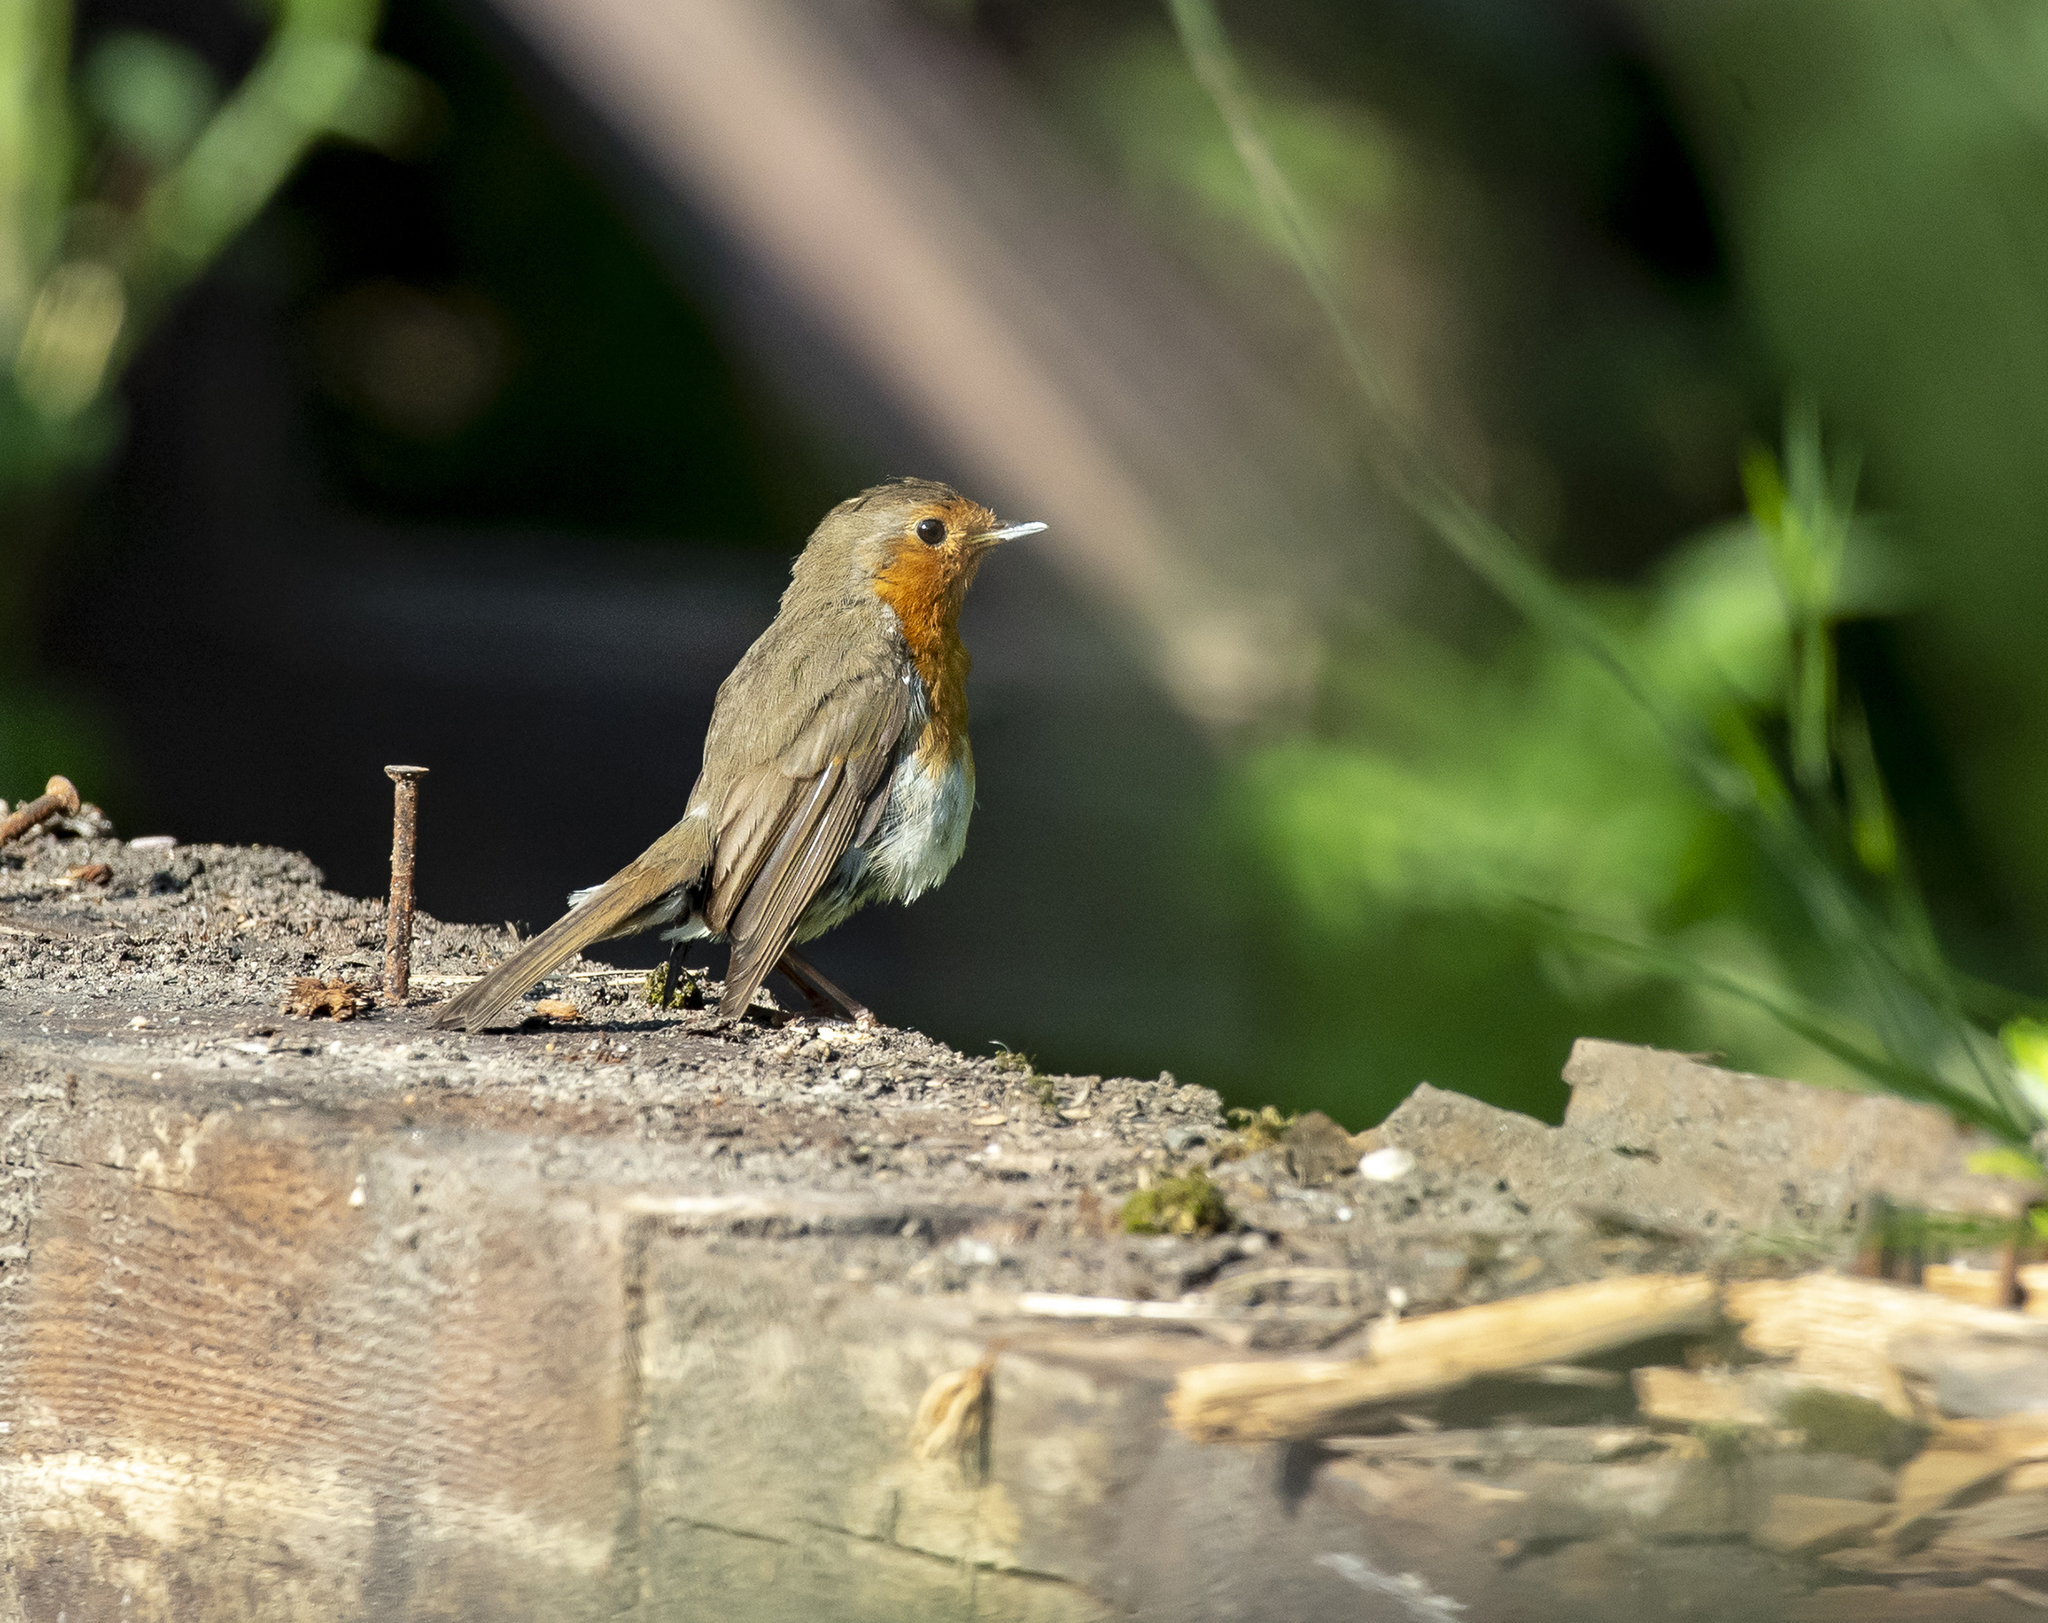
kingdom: Animalia
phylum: Chordata
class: Aves
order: Passeriformes
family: Muscicapidae
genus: Erithacus
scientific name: Erithacus rubecula
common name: European robin
